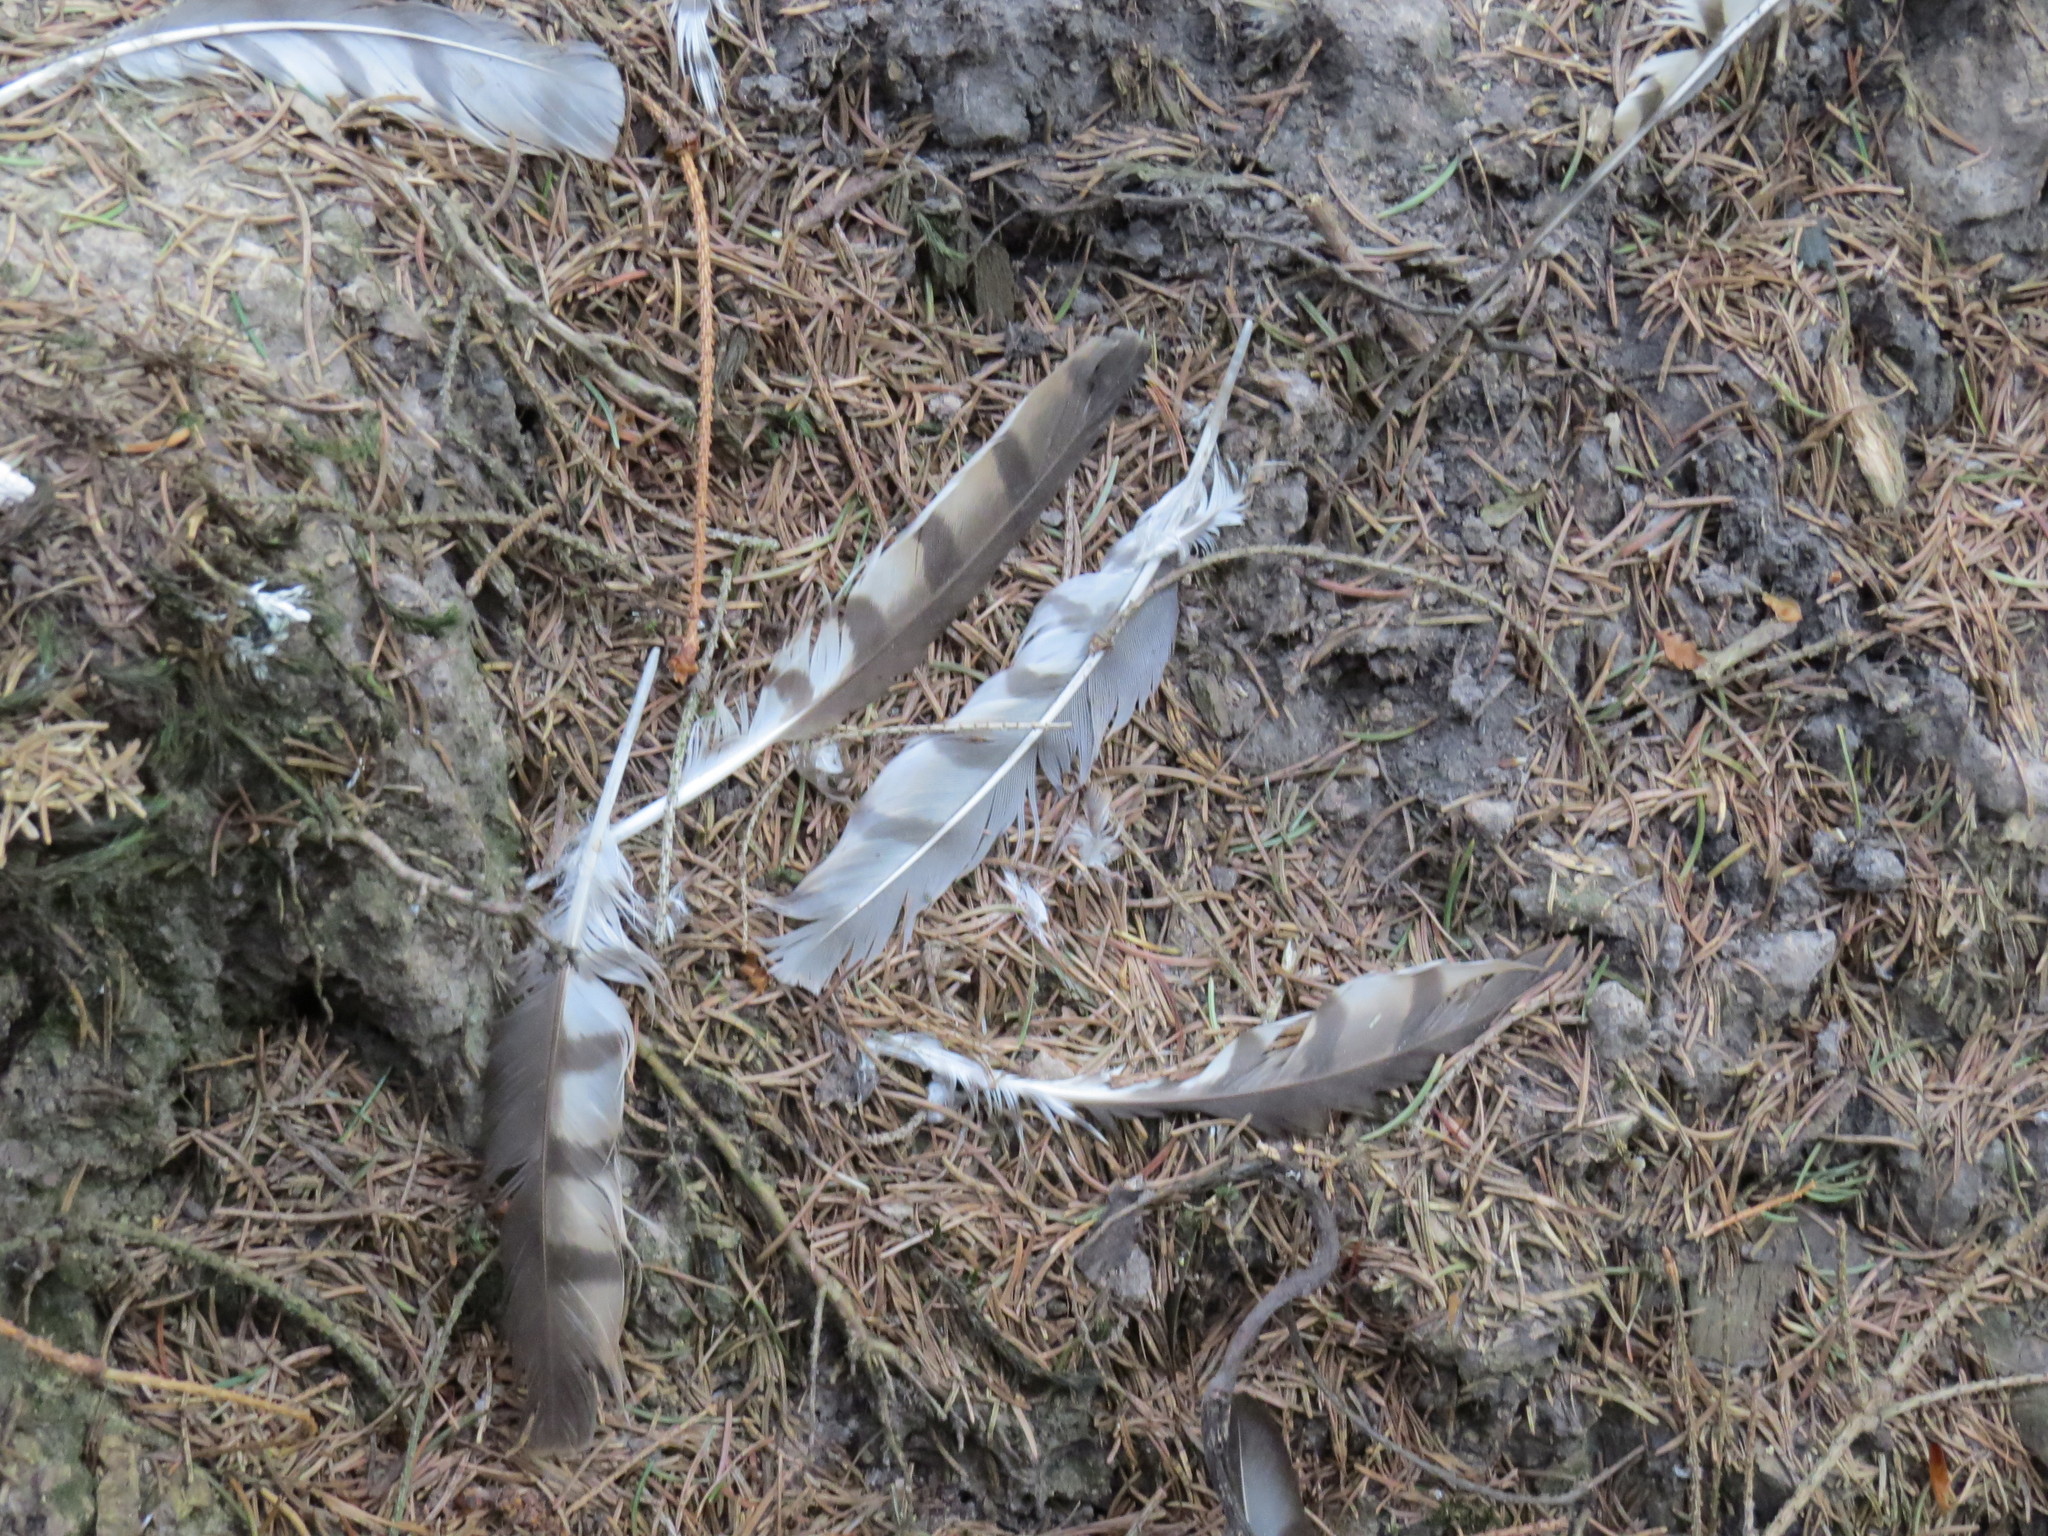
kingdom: Animalia
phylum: Chordata
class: Aves
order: Accipitriformes
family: Accipitridae
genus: Accipiter
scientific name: Accipiter nisus
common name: Eurasian sparrowhawk
